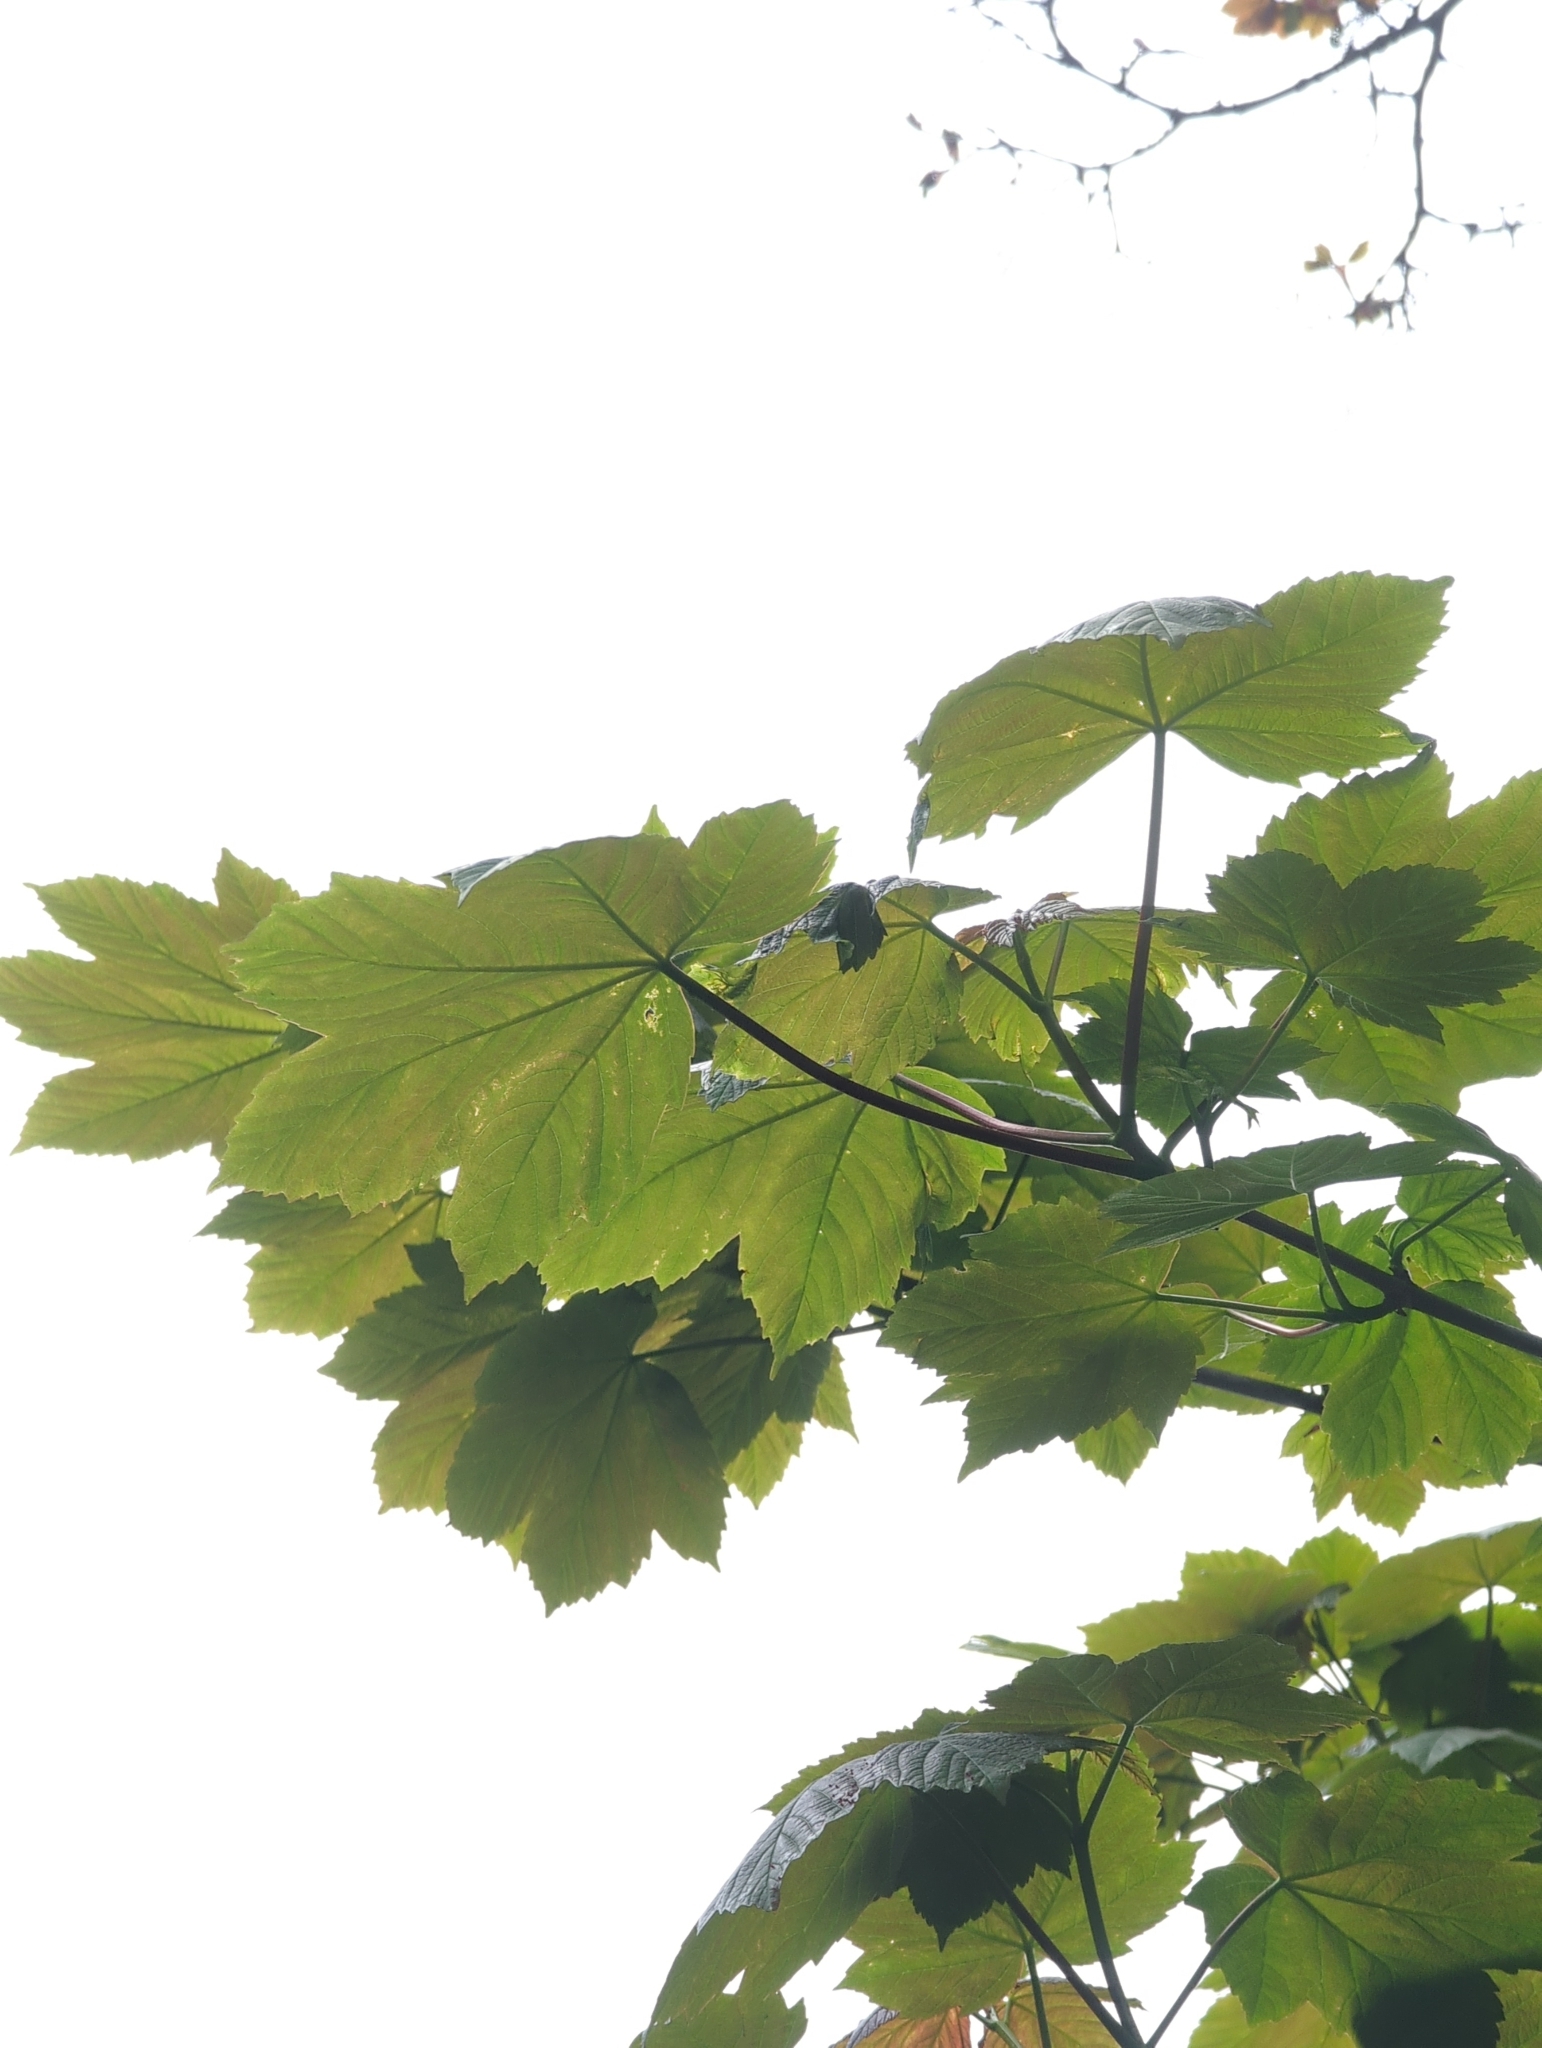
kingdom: Plantae
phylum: Tracheophyta
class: Magnoliopsida
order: Sapindales
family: Sapindaceae
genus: Acer
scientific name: Acer pseudoplatanus
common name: Sycamore
